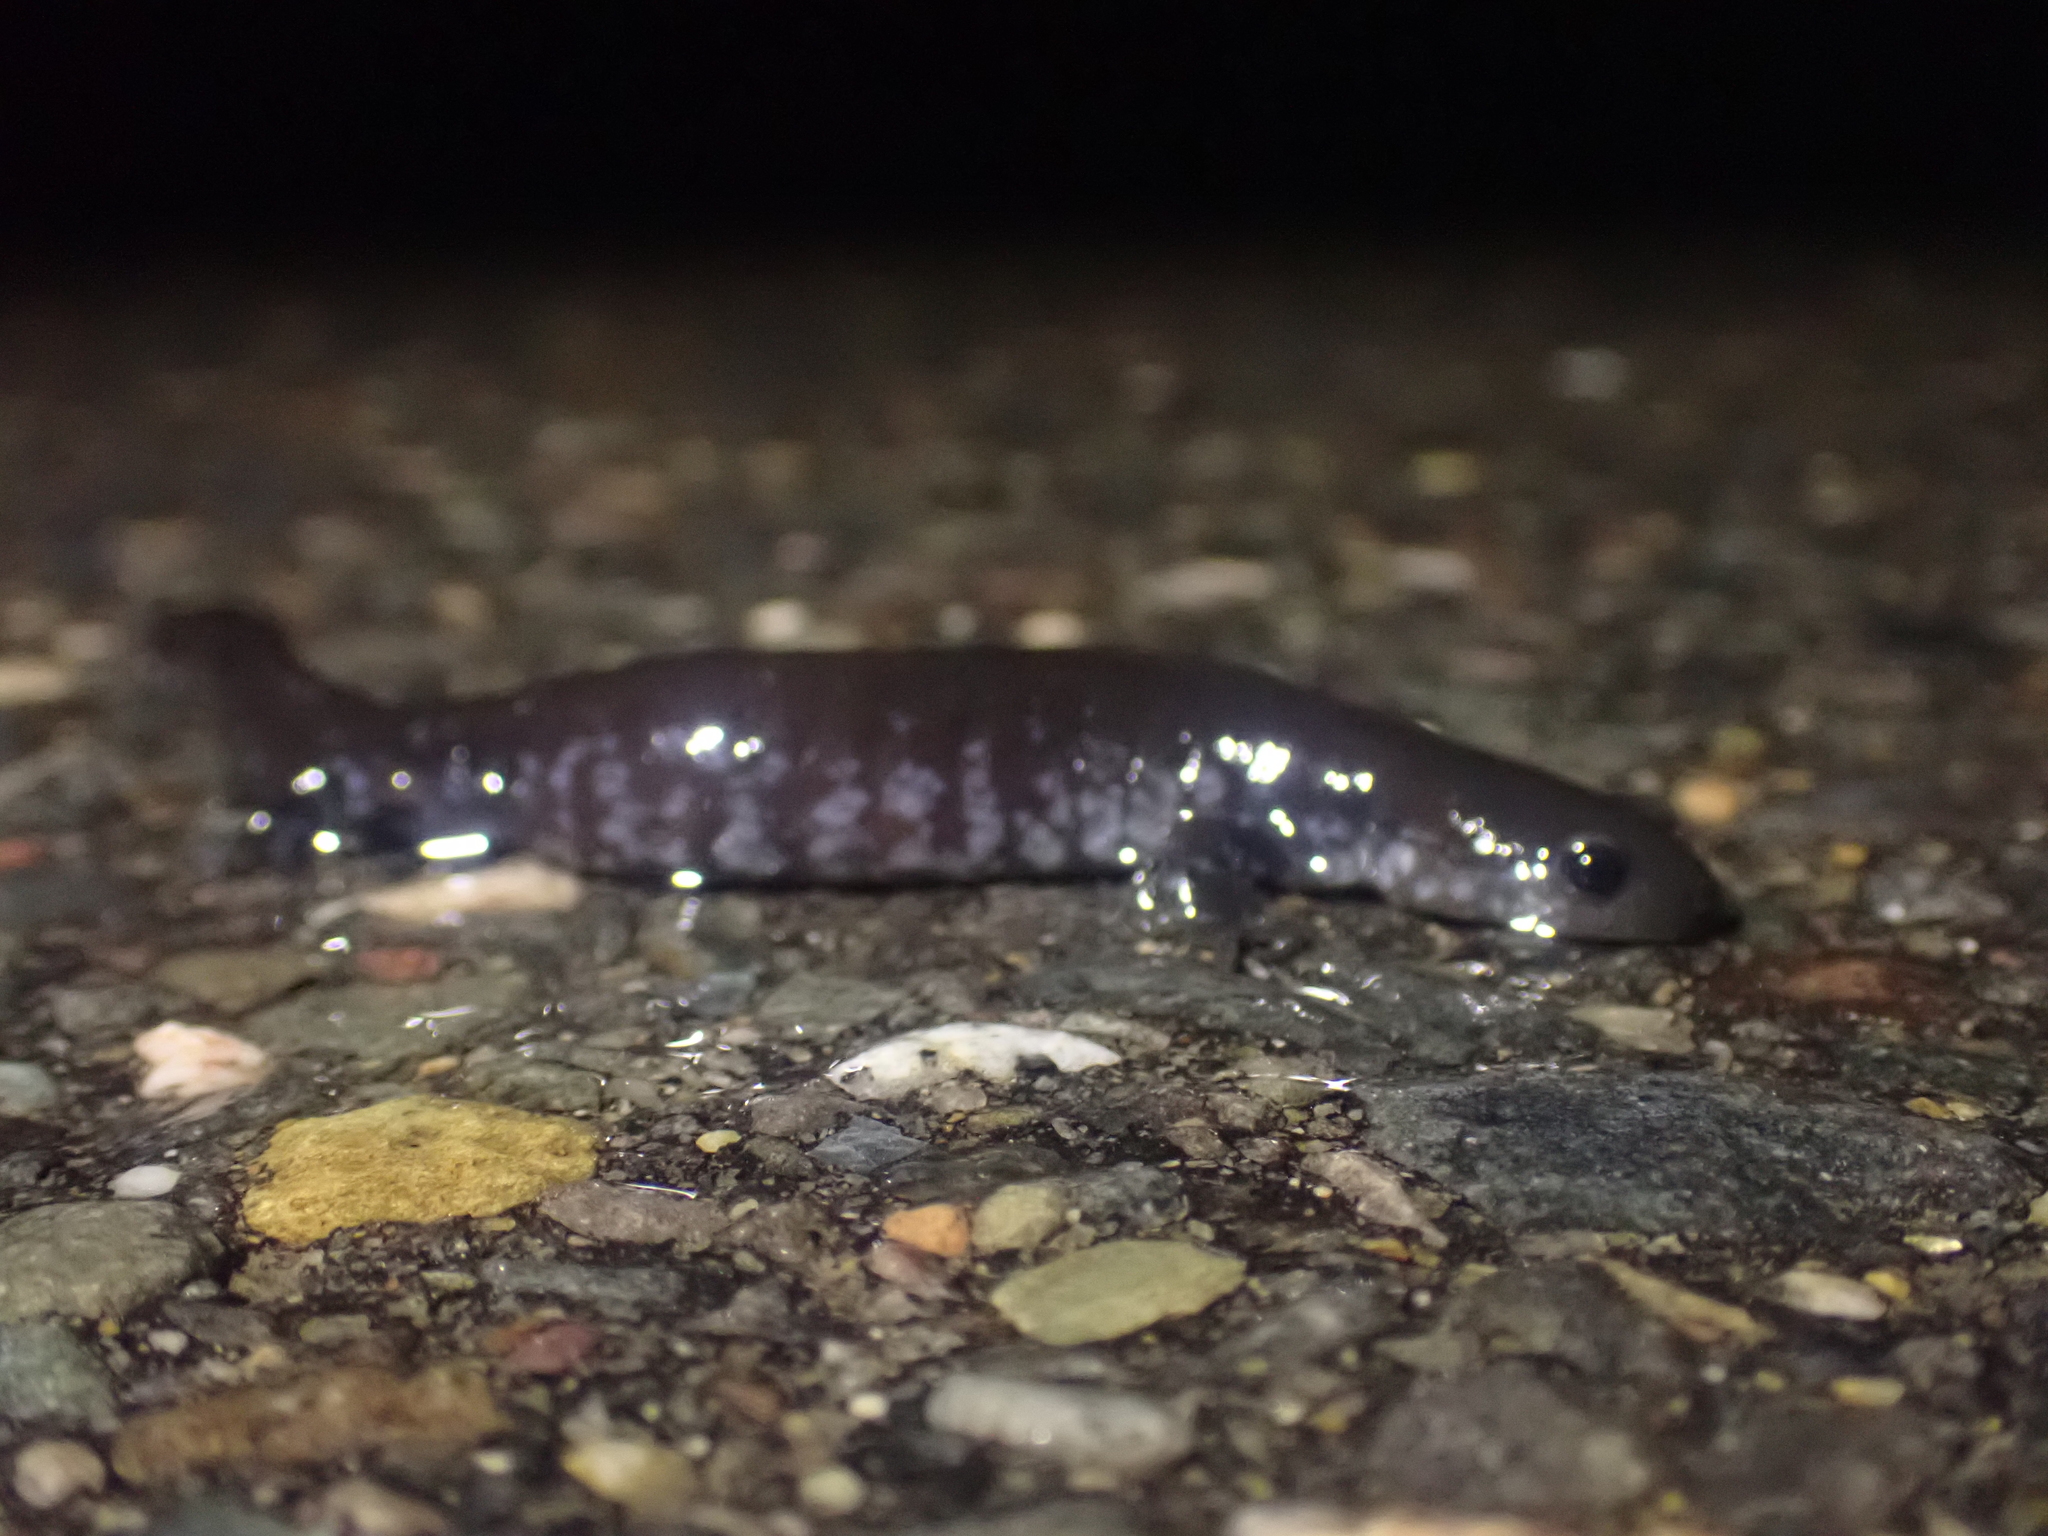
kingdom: Animalia
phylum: Chordata
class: Amphibia
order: Caudata
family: Ambystomatidae
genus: Ambystoma
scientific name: Ambystoma laterale
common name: Blue-spotted salamander
